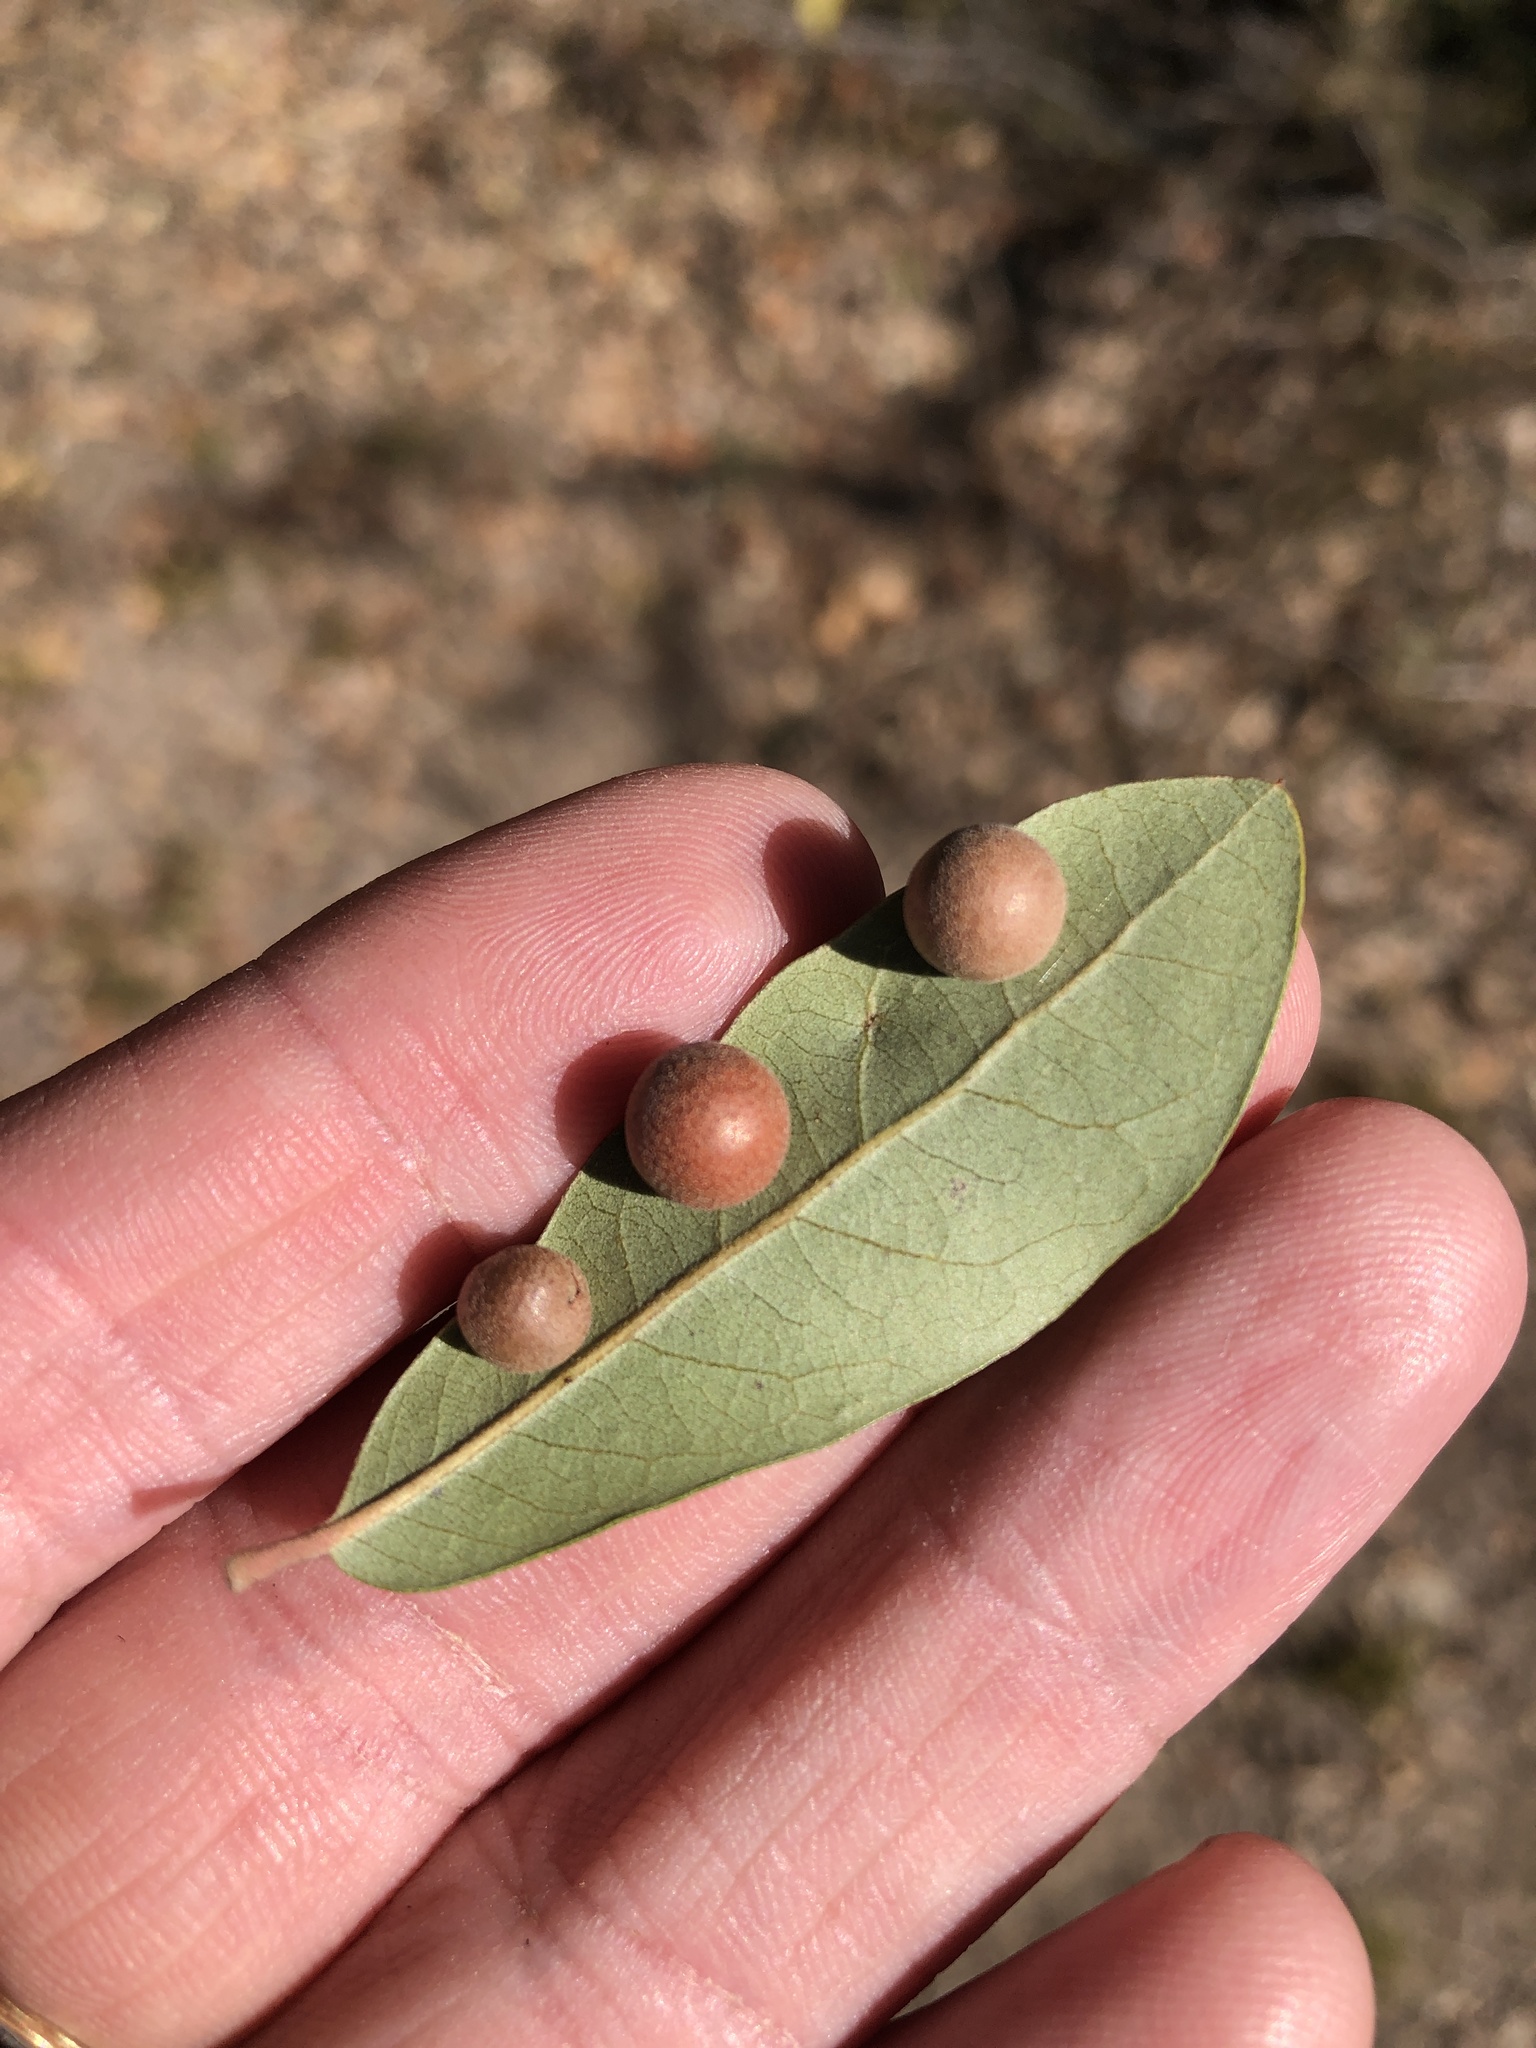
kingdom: Animalia
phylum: Arthropoda
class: Insecta
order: Hymenoptera
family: Cynipidae
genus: Belonocnema
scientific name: Belonocnema kinseyi
